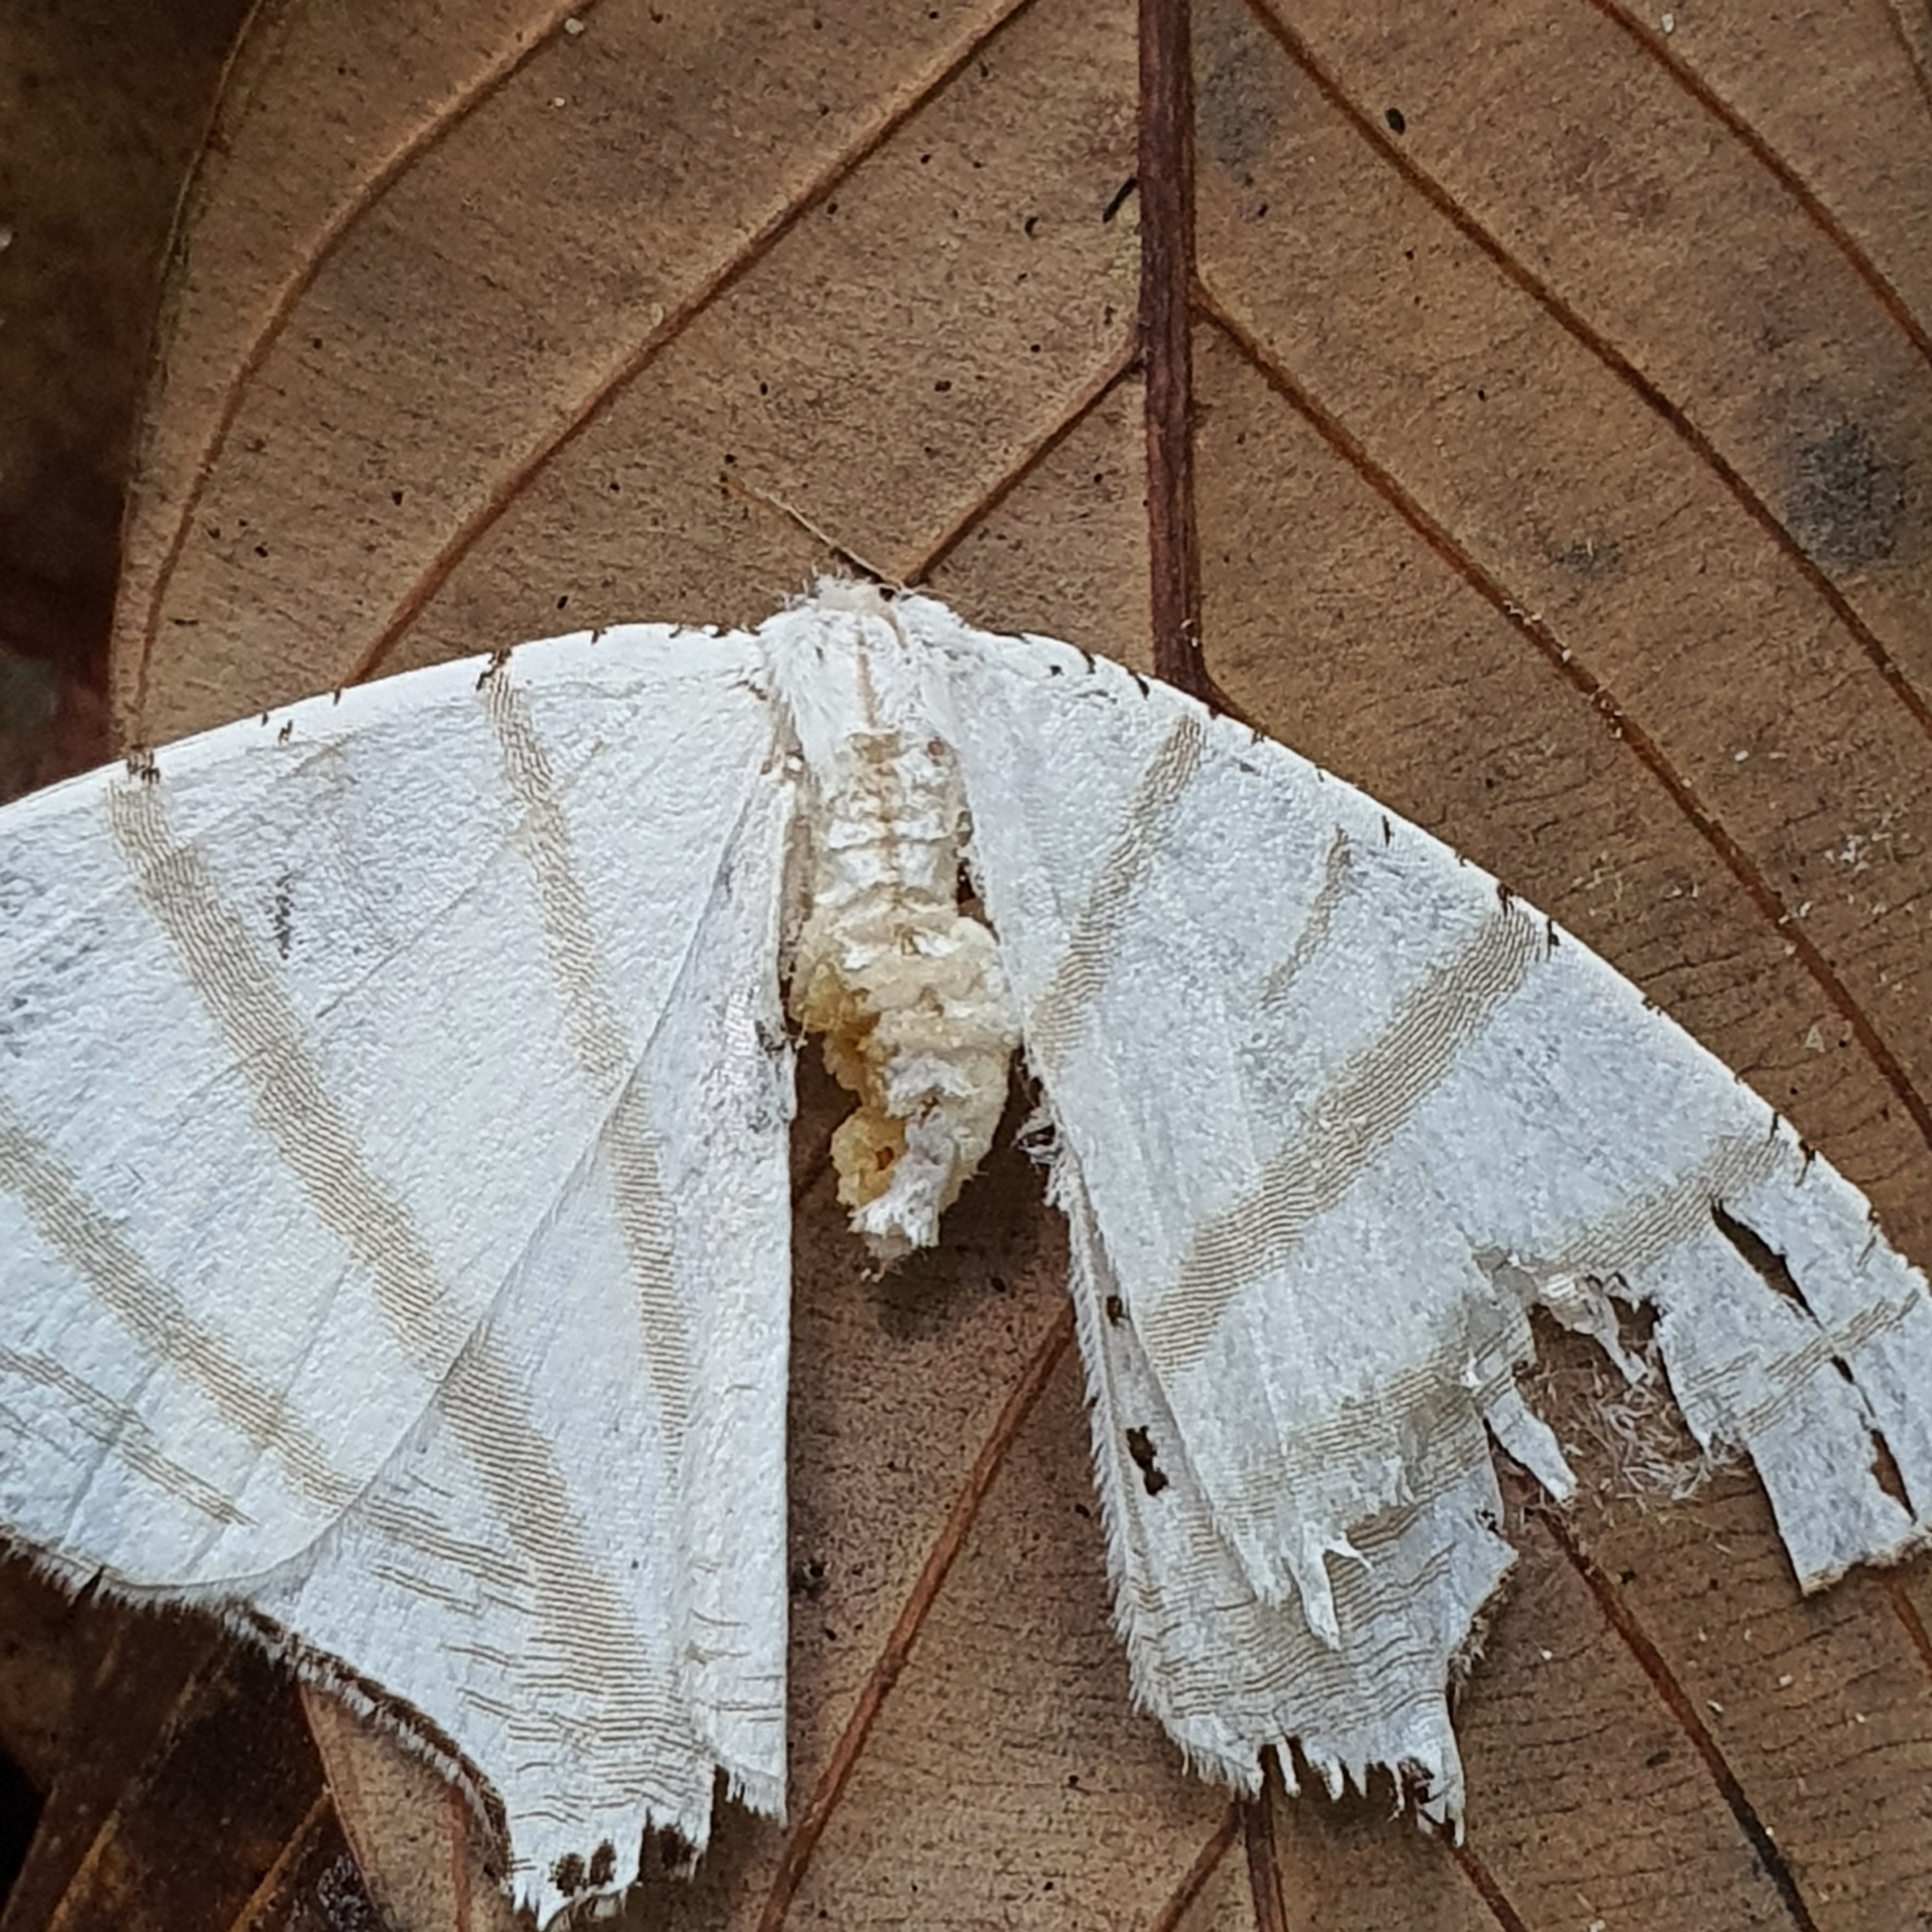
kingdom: Animalia
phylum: Arthropoda
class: Insecta
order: Lepidoptera
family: Uraniidae
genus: Urapteroides
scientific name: Urapteroides astheniata
